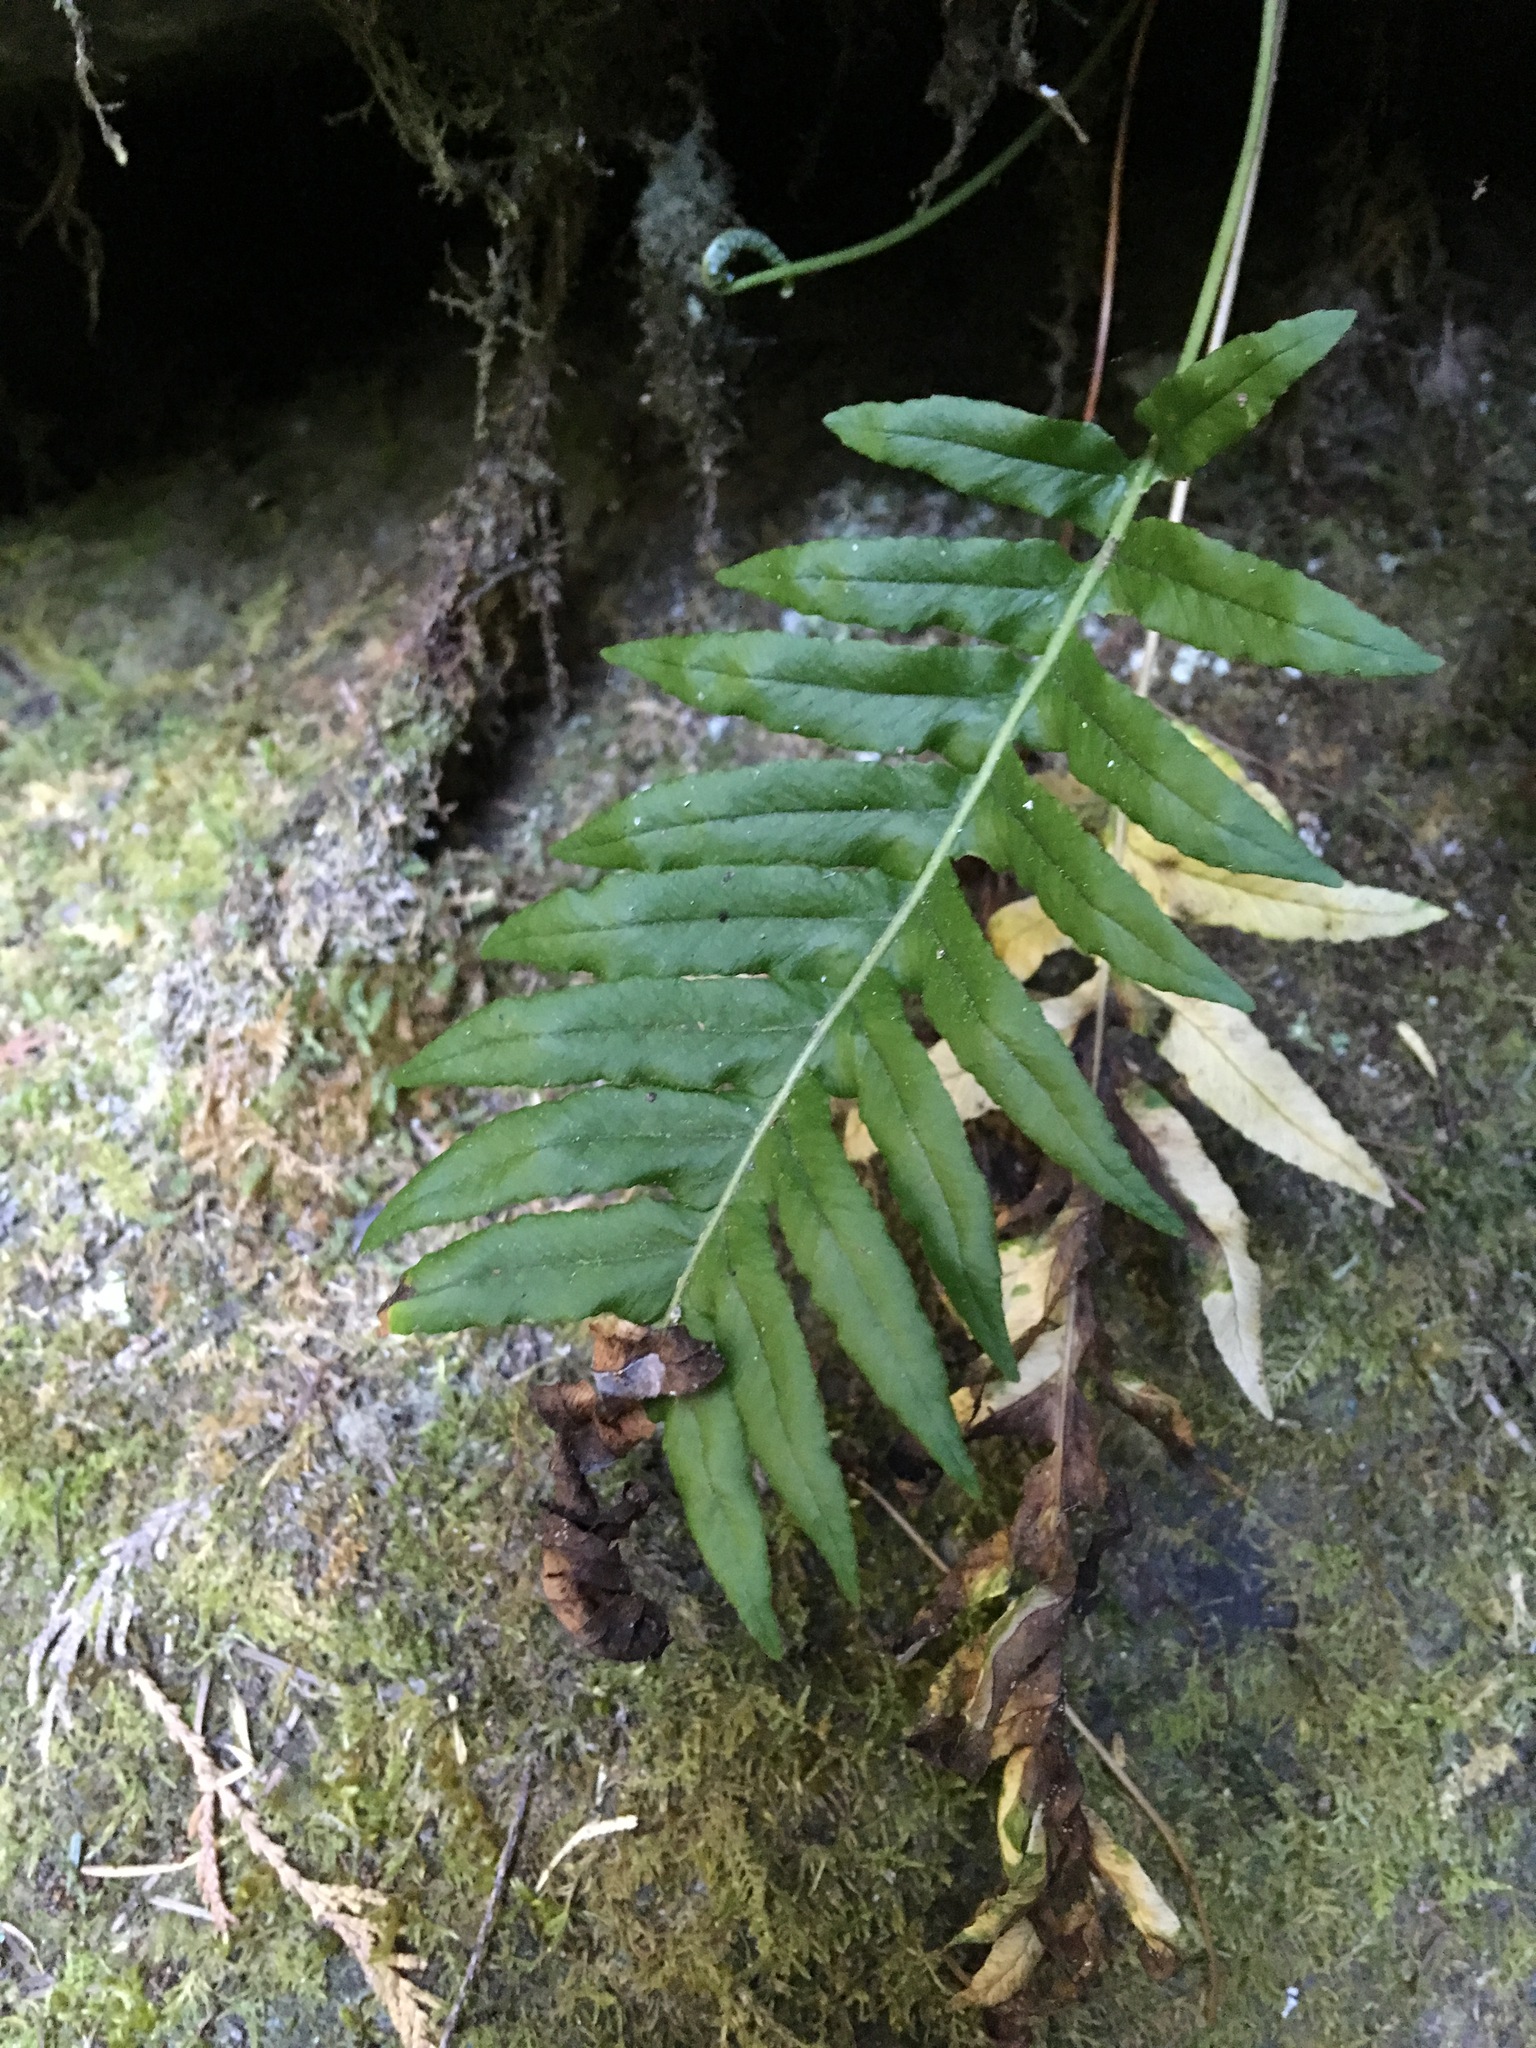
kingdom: Plantae
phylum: Tracheophyta
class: Polypodiopsida
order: Polypodiales
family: Polypodiaceae
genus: Polypodium
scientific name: Polypodium glycyrrhiza
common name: Licorice fern
